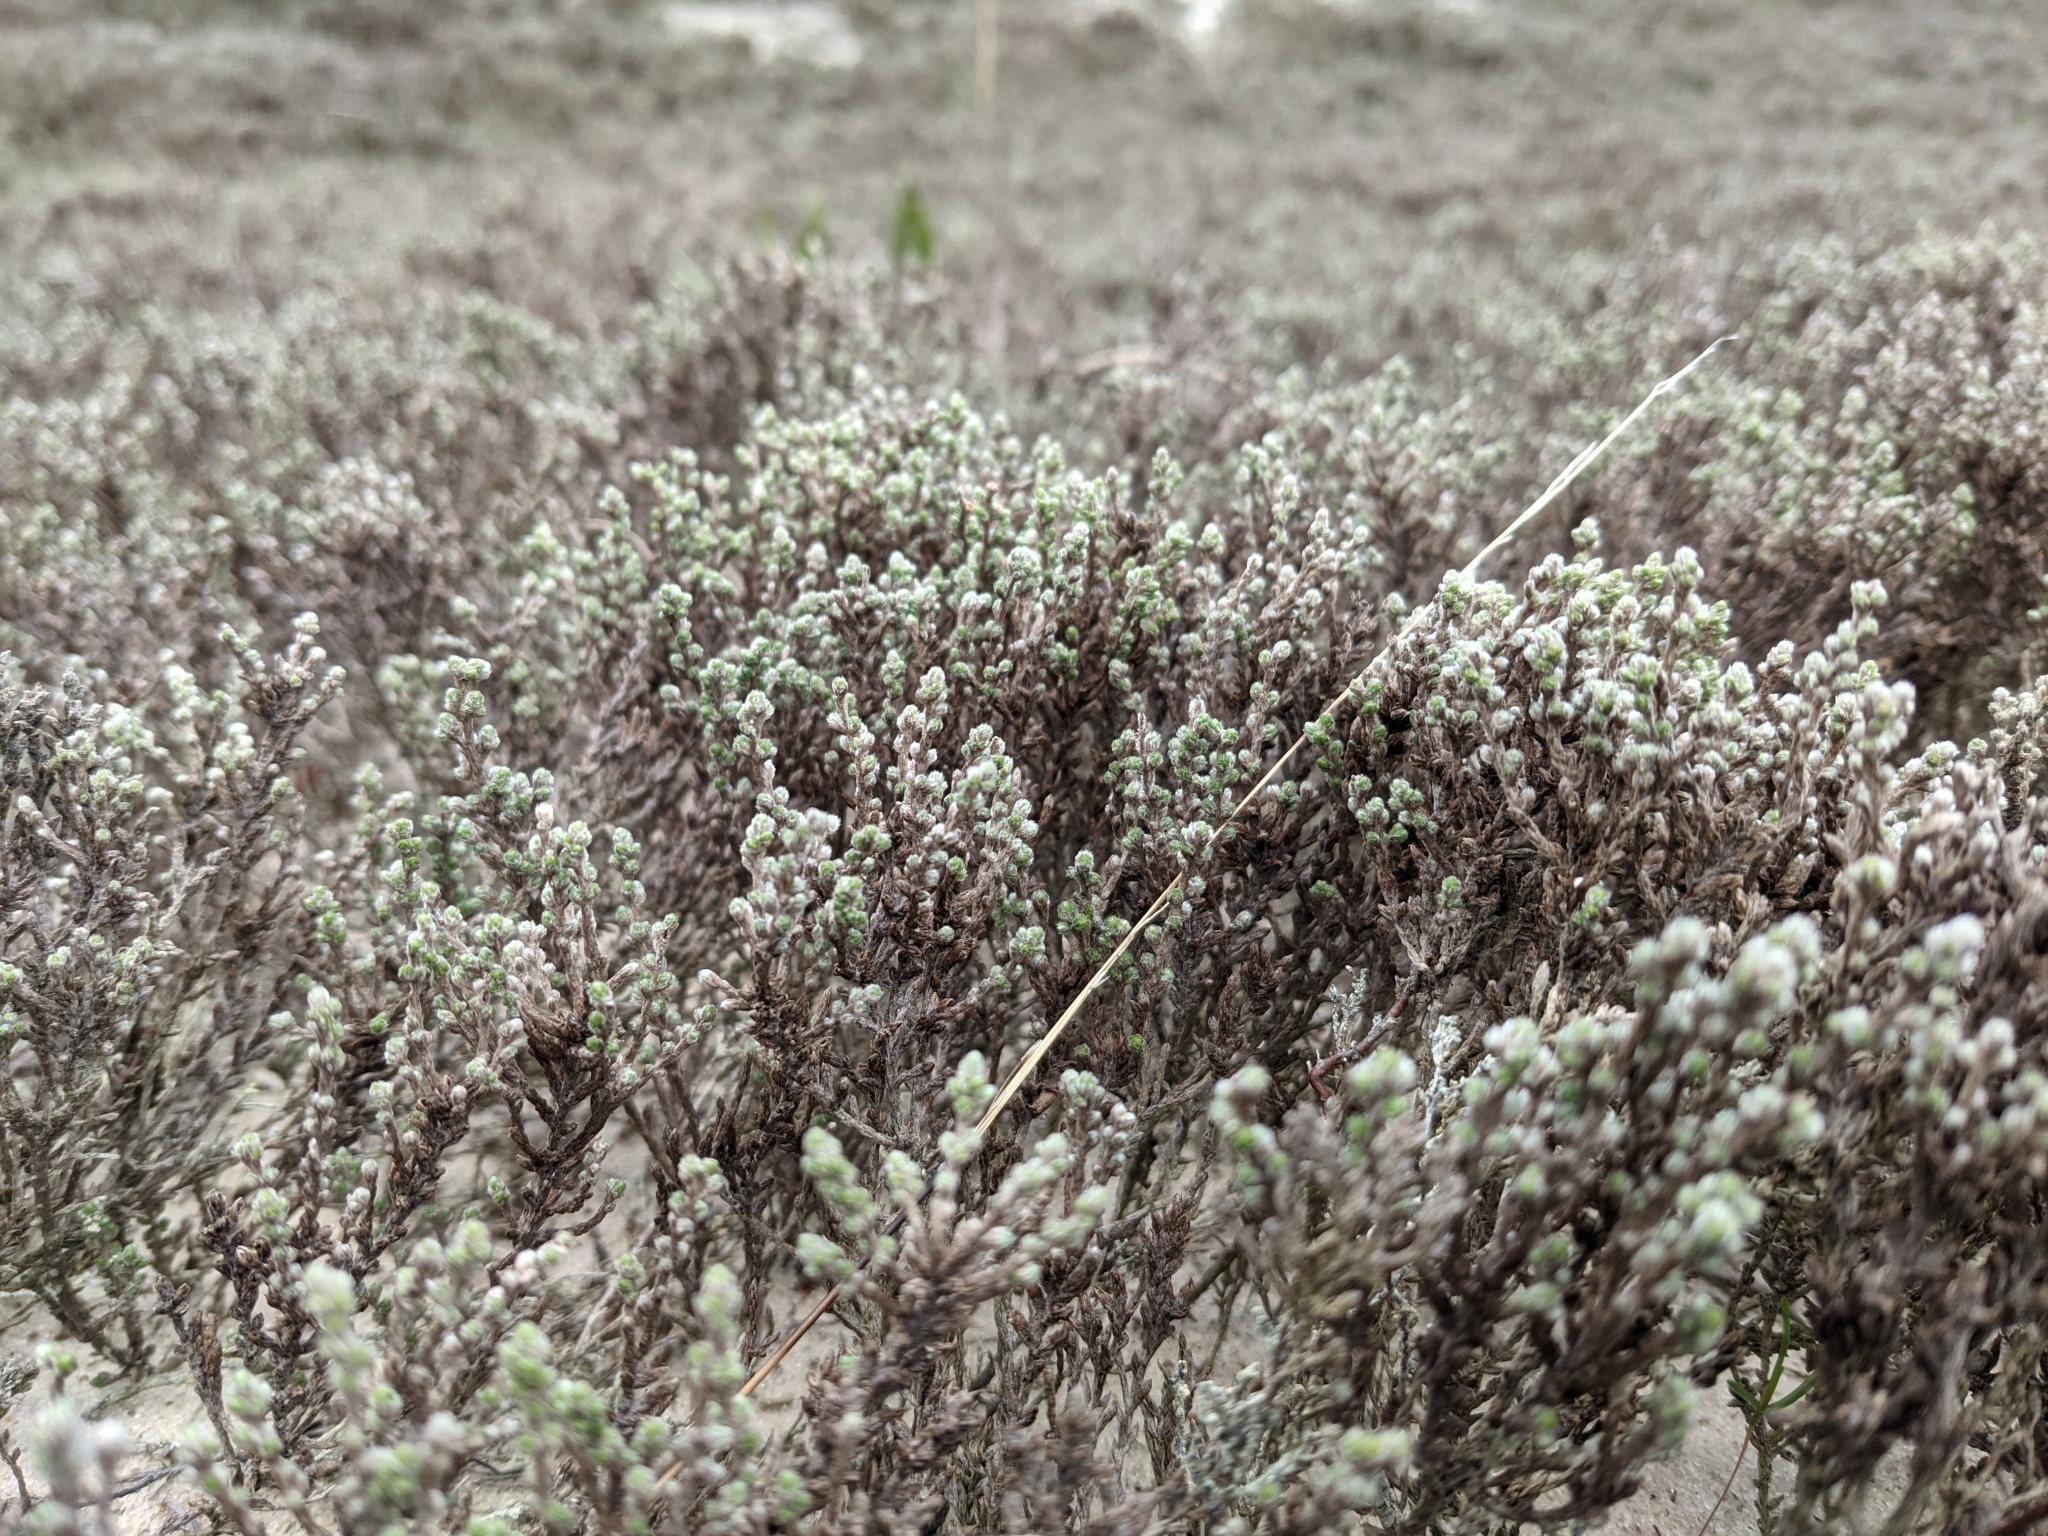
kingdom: Plantae
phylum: Tracheophyta
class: Magnoliopsida
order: Malvales
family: Cistaceae
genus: Hudsonia
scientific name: Hudsonia tomentosa
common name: Beach-heath
